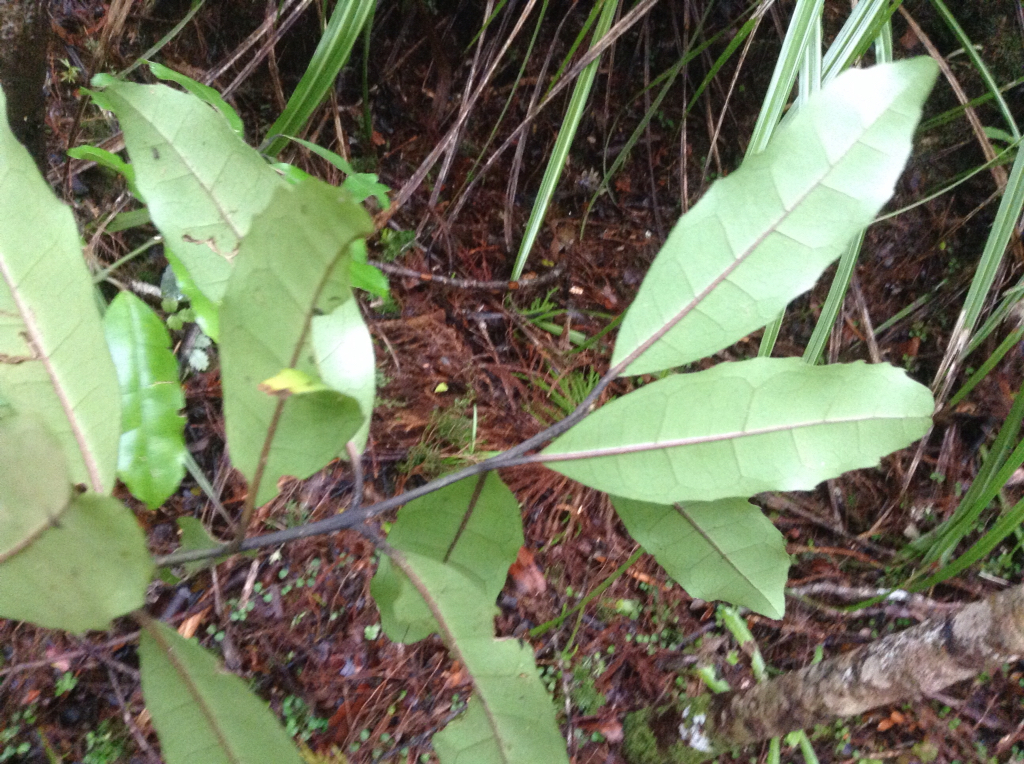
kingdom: Plantae
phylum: Tracheophyta
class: Magnoliopsida
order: Laurales
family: Monimiaceae
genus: Hedycarya
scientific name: Hedycarya arborea
